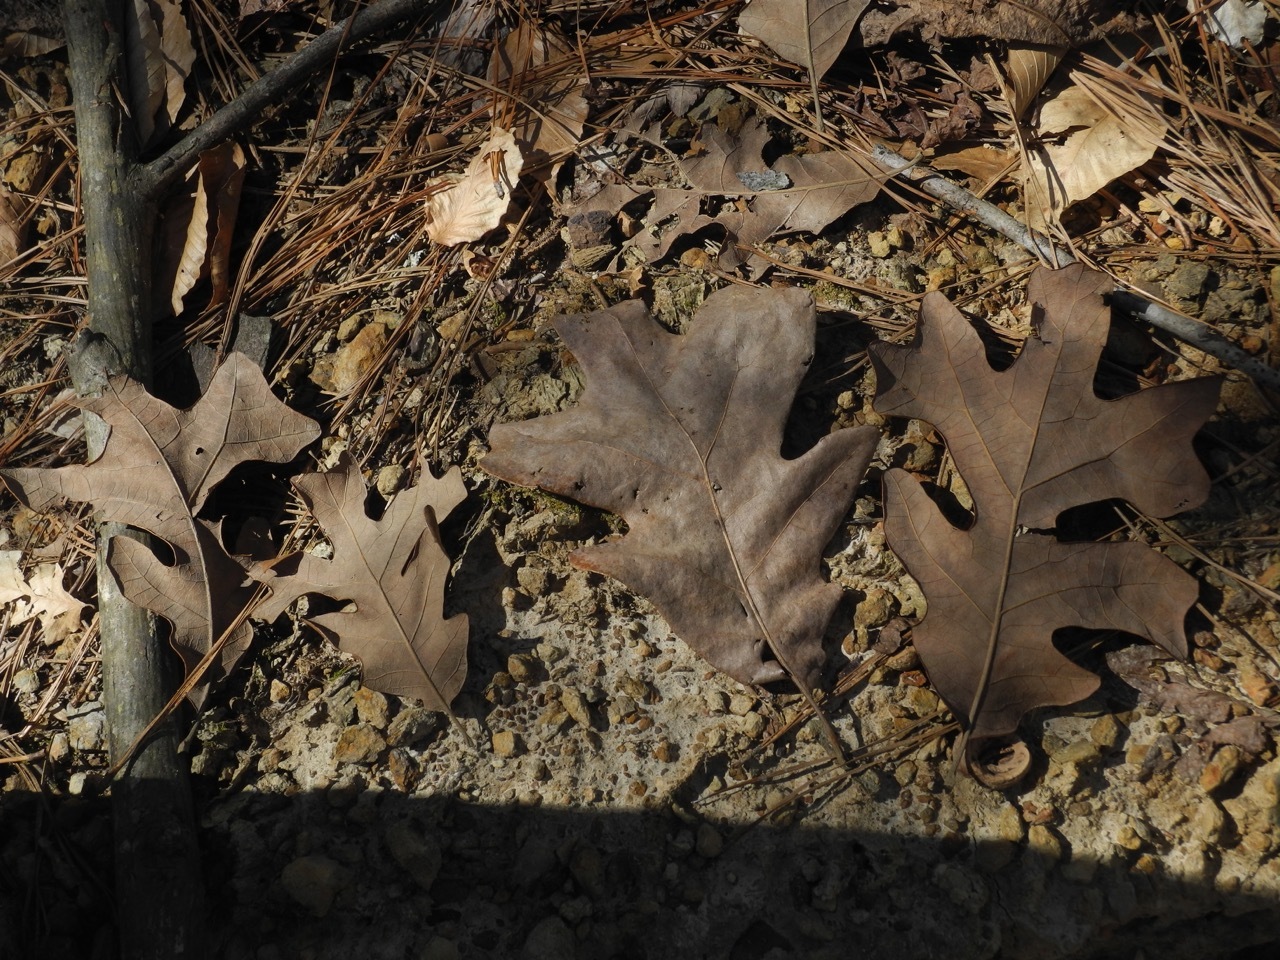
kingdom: Plantae
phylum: Tracheophyta
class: Magnoliopsida
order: Fagales
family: Fagaceae
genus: Quercus
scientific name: Quercus stellata
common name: Post oak
